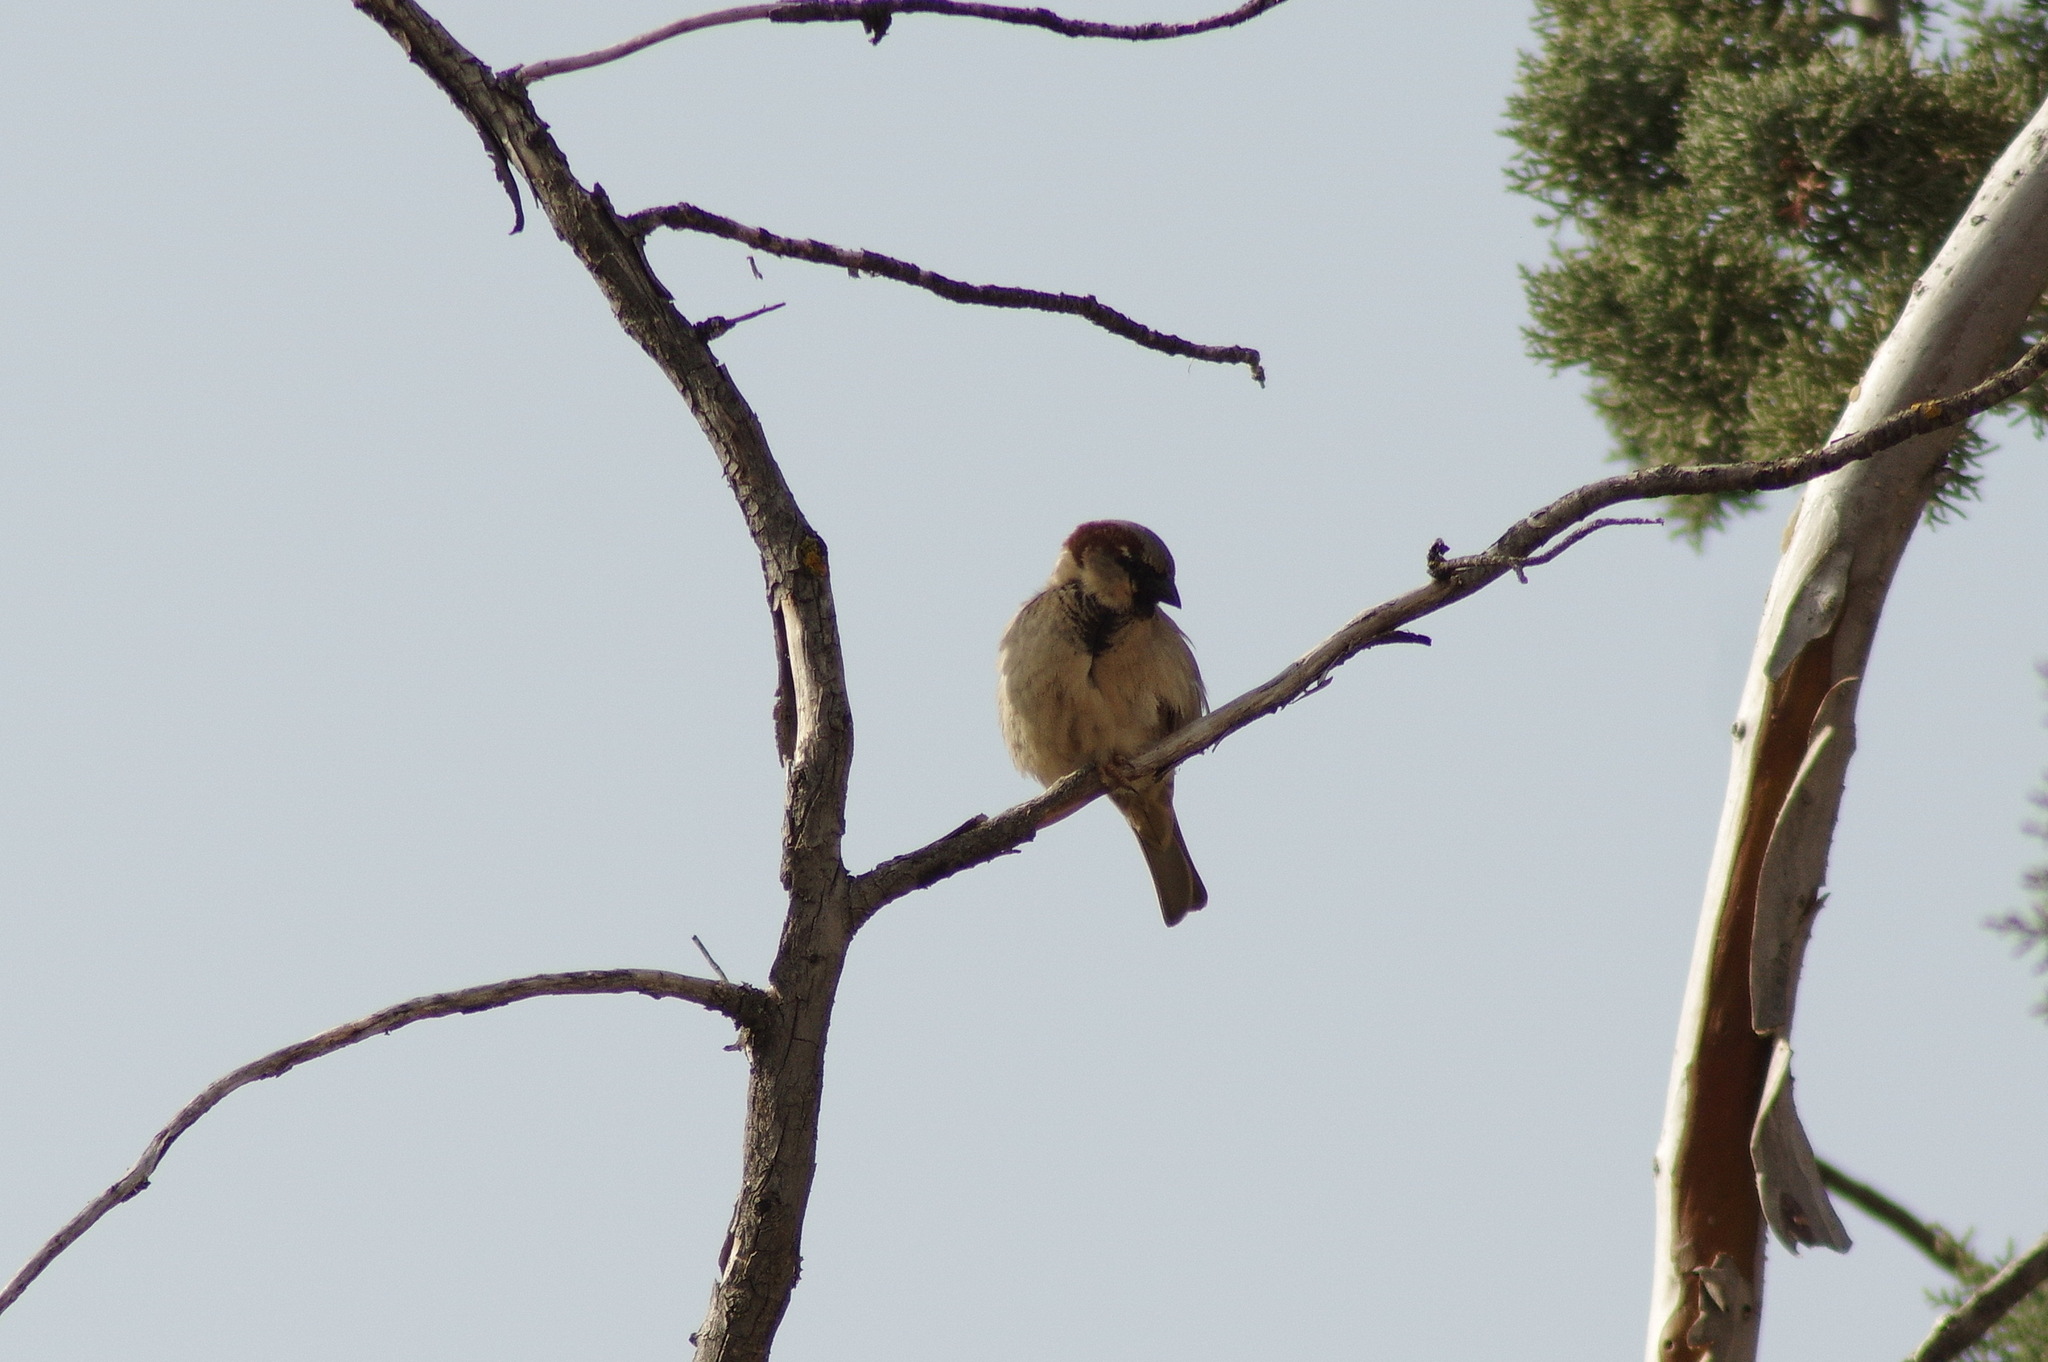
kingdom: Animalia
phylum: Chordata
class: Aves
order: Passeriformes
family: Passeridae
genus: Passer
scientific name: Passer domesticus
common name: House sparrow
